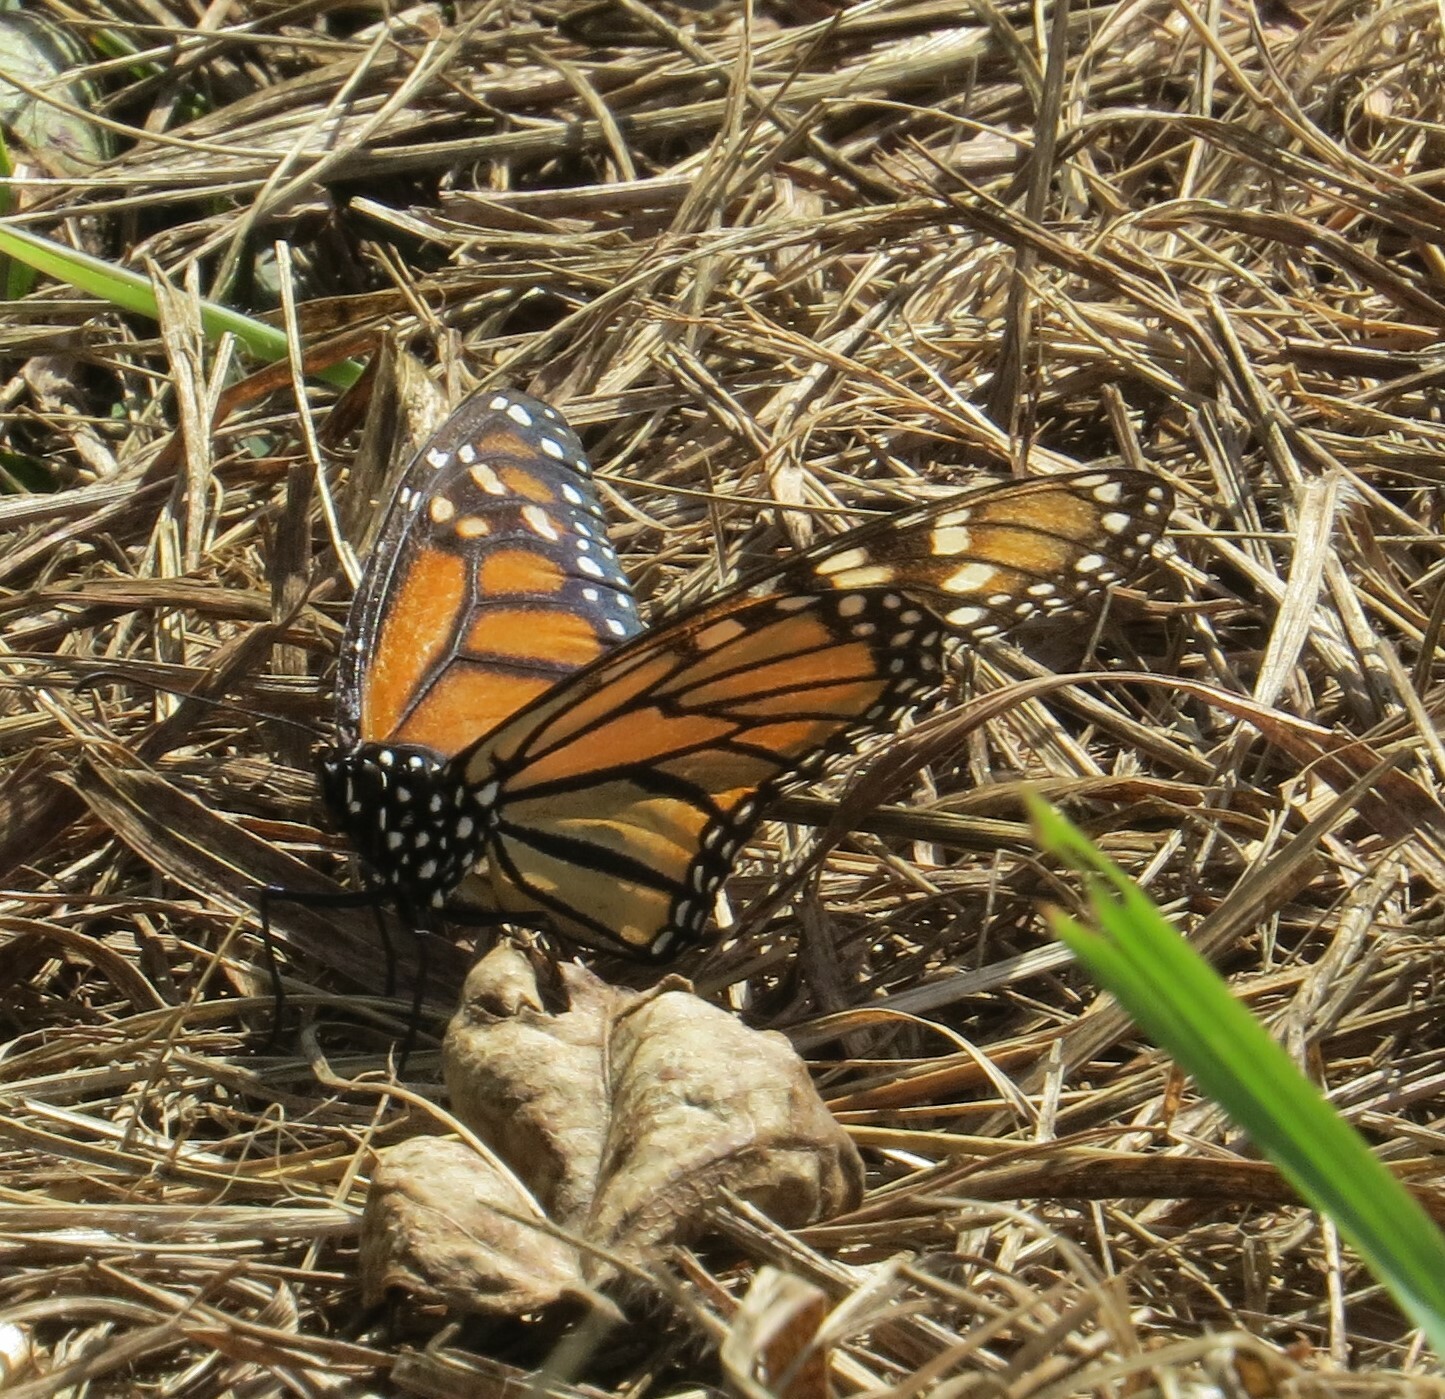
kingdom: Animalia
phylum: Arthropoda
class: Insecta
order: Lepidoptera
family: Nymphalidae
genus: Danaus
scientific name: Danaus plexippus
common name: Monarch
